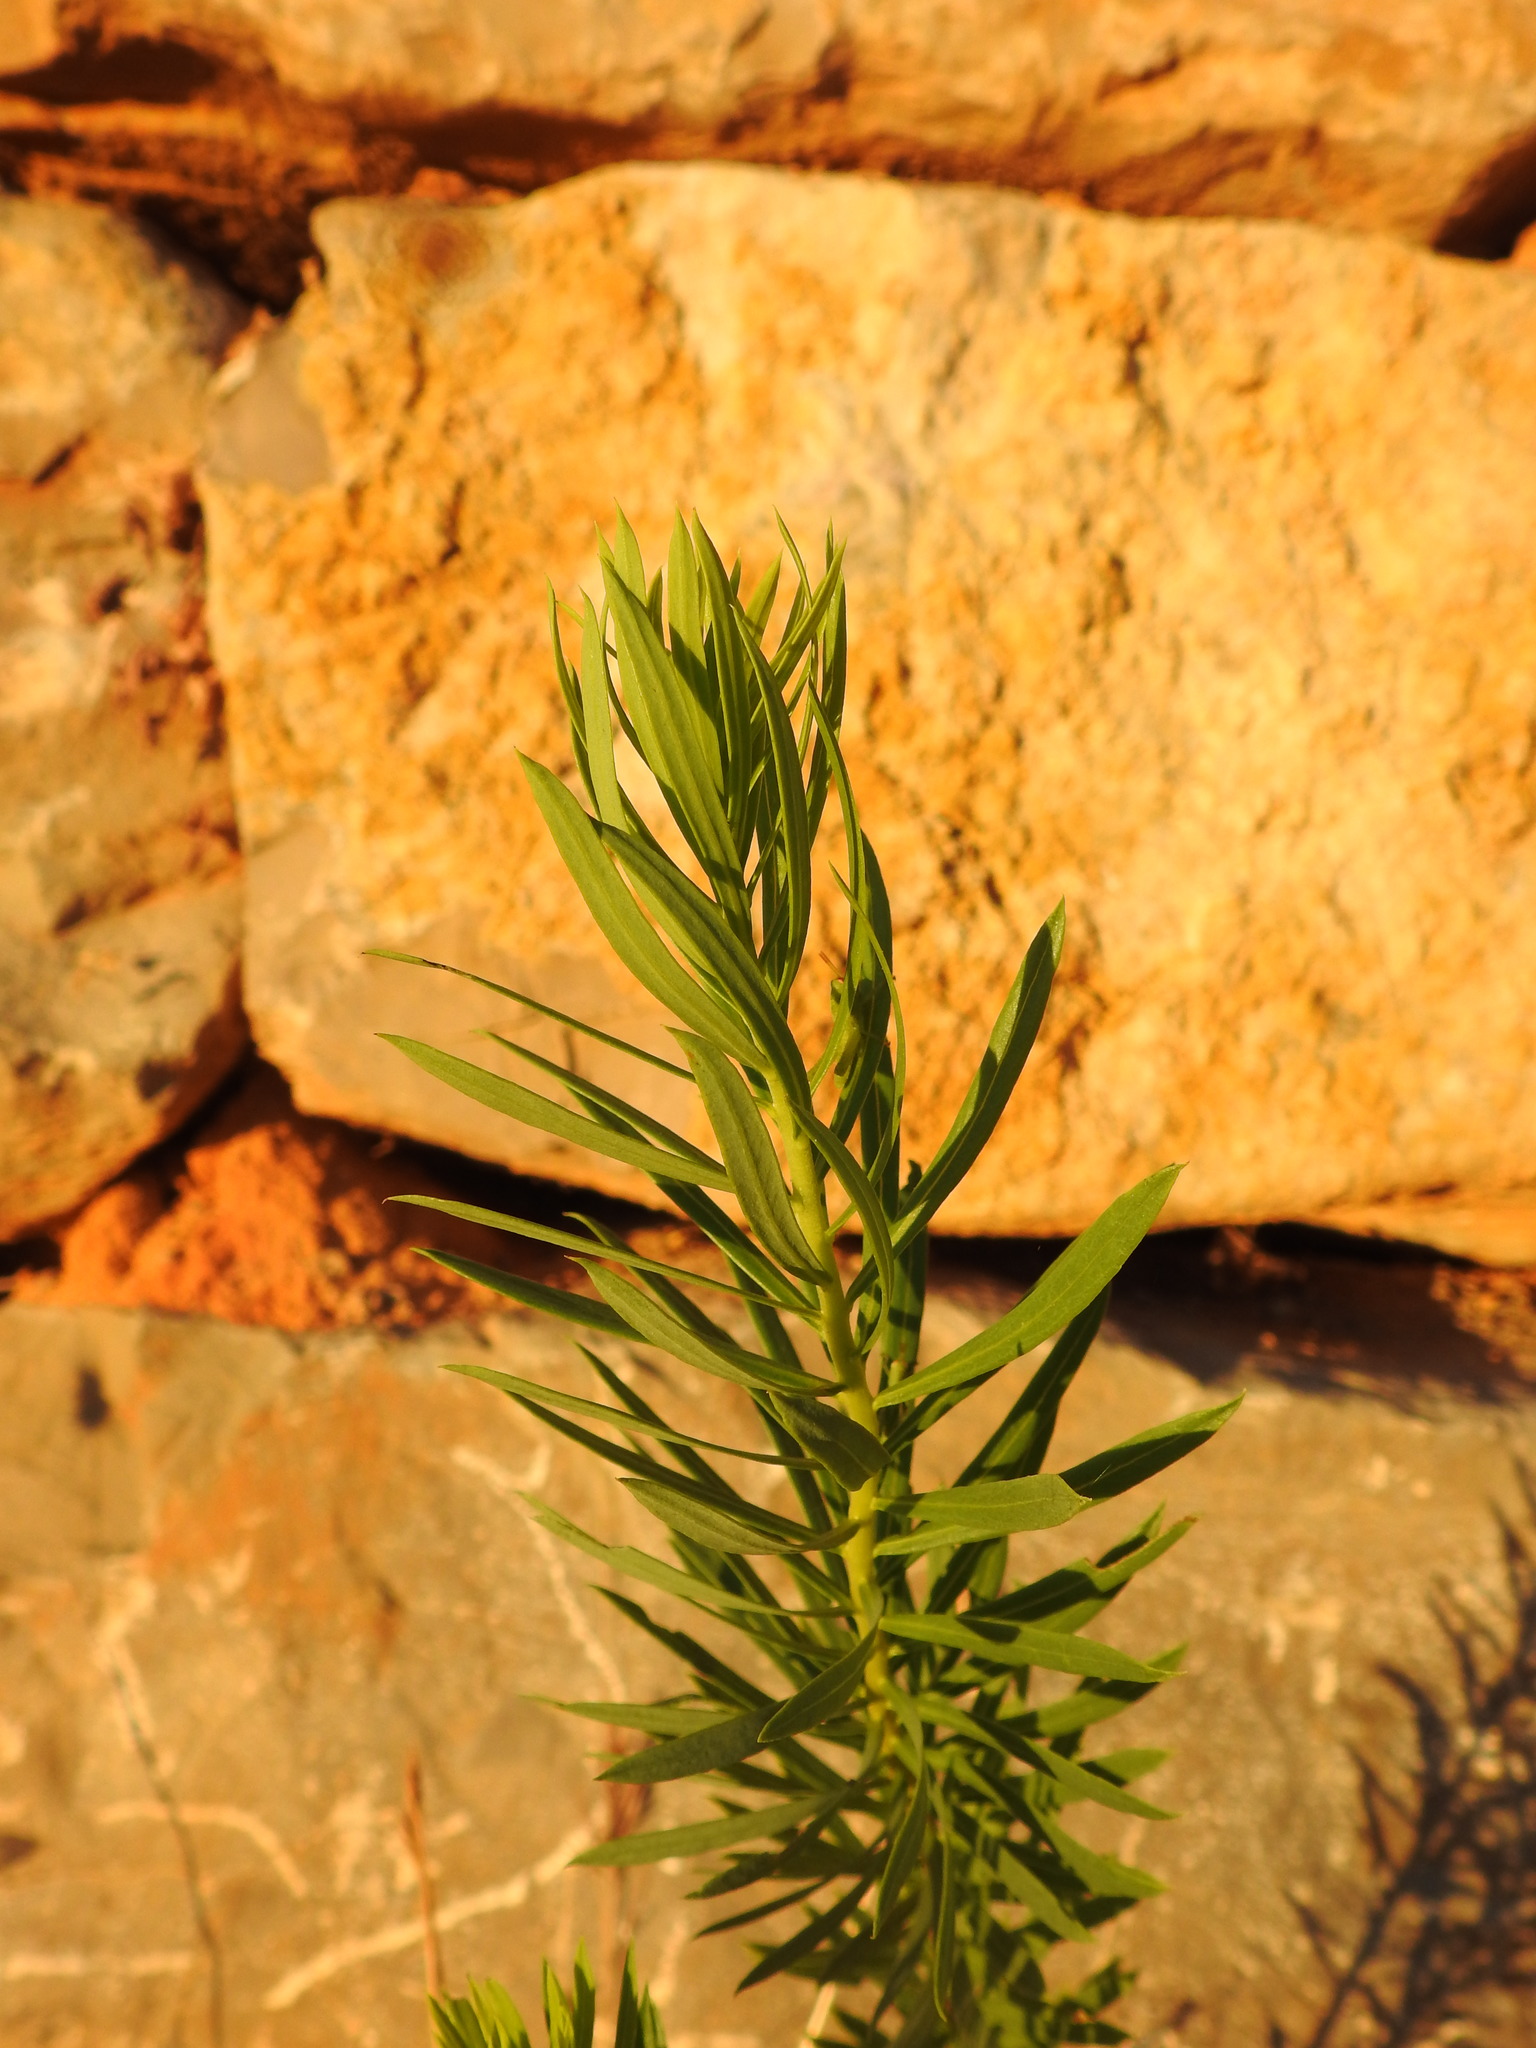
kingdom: Plantae
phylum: Tracheophyta
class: Magnoliopsida
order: Malvales
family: Thymelaeaceae
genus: Daphne
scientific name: Daphne gnidium
